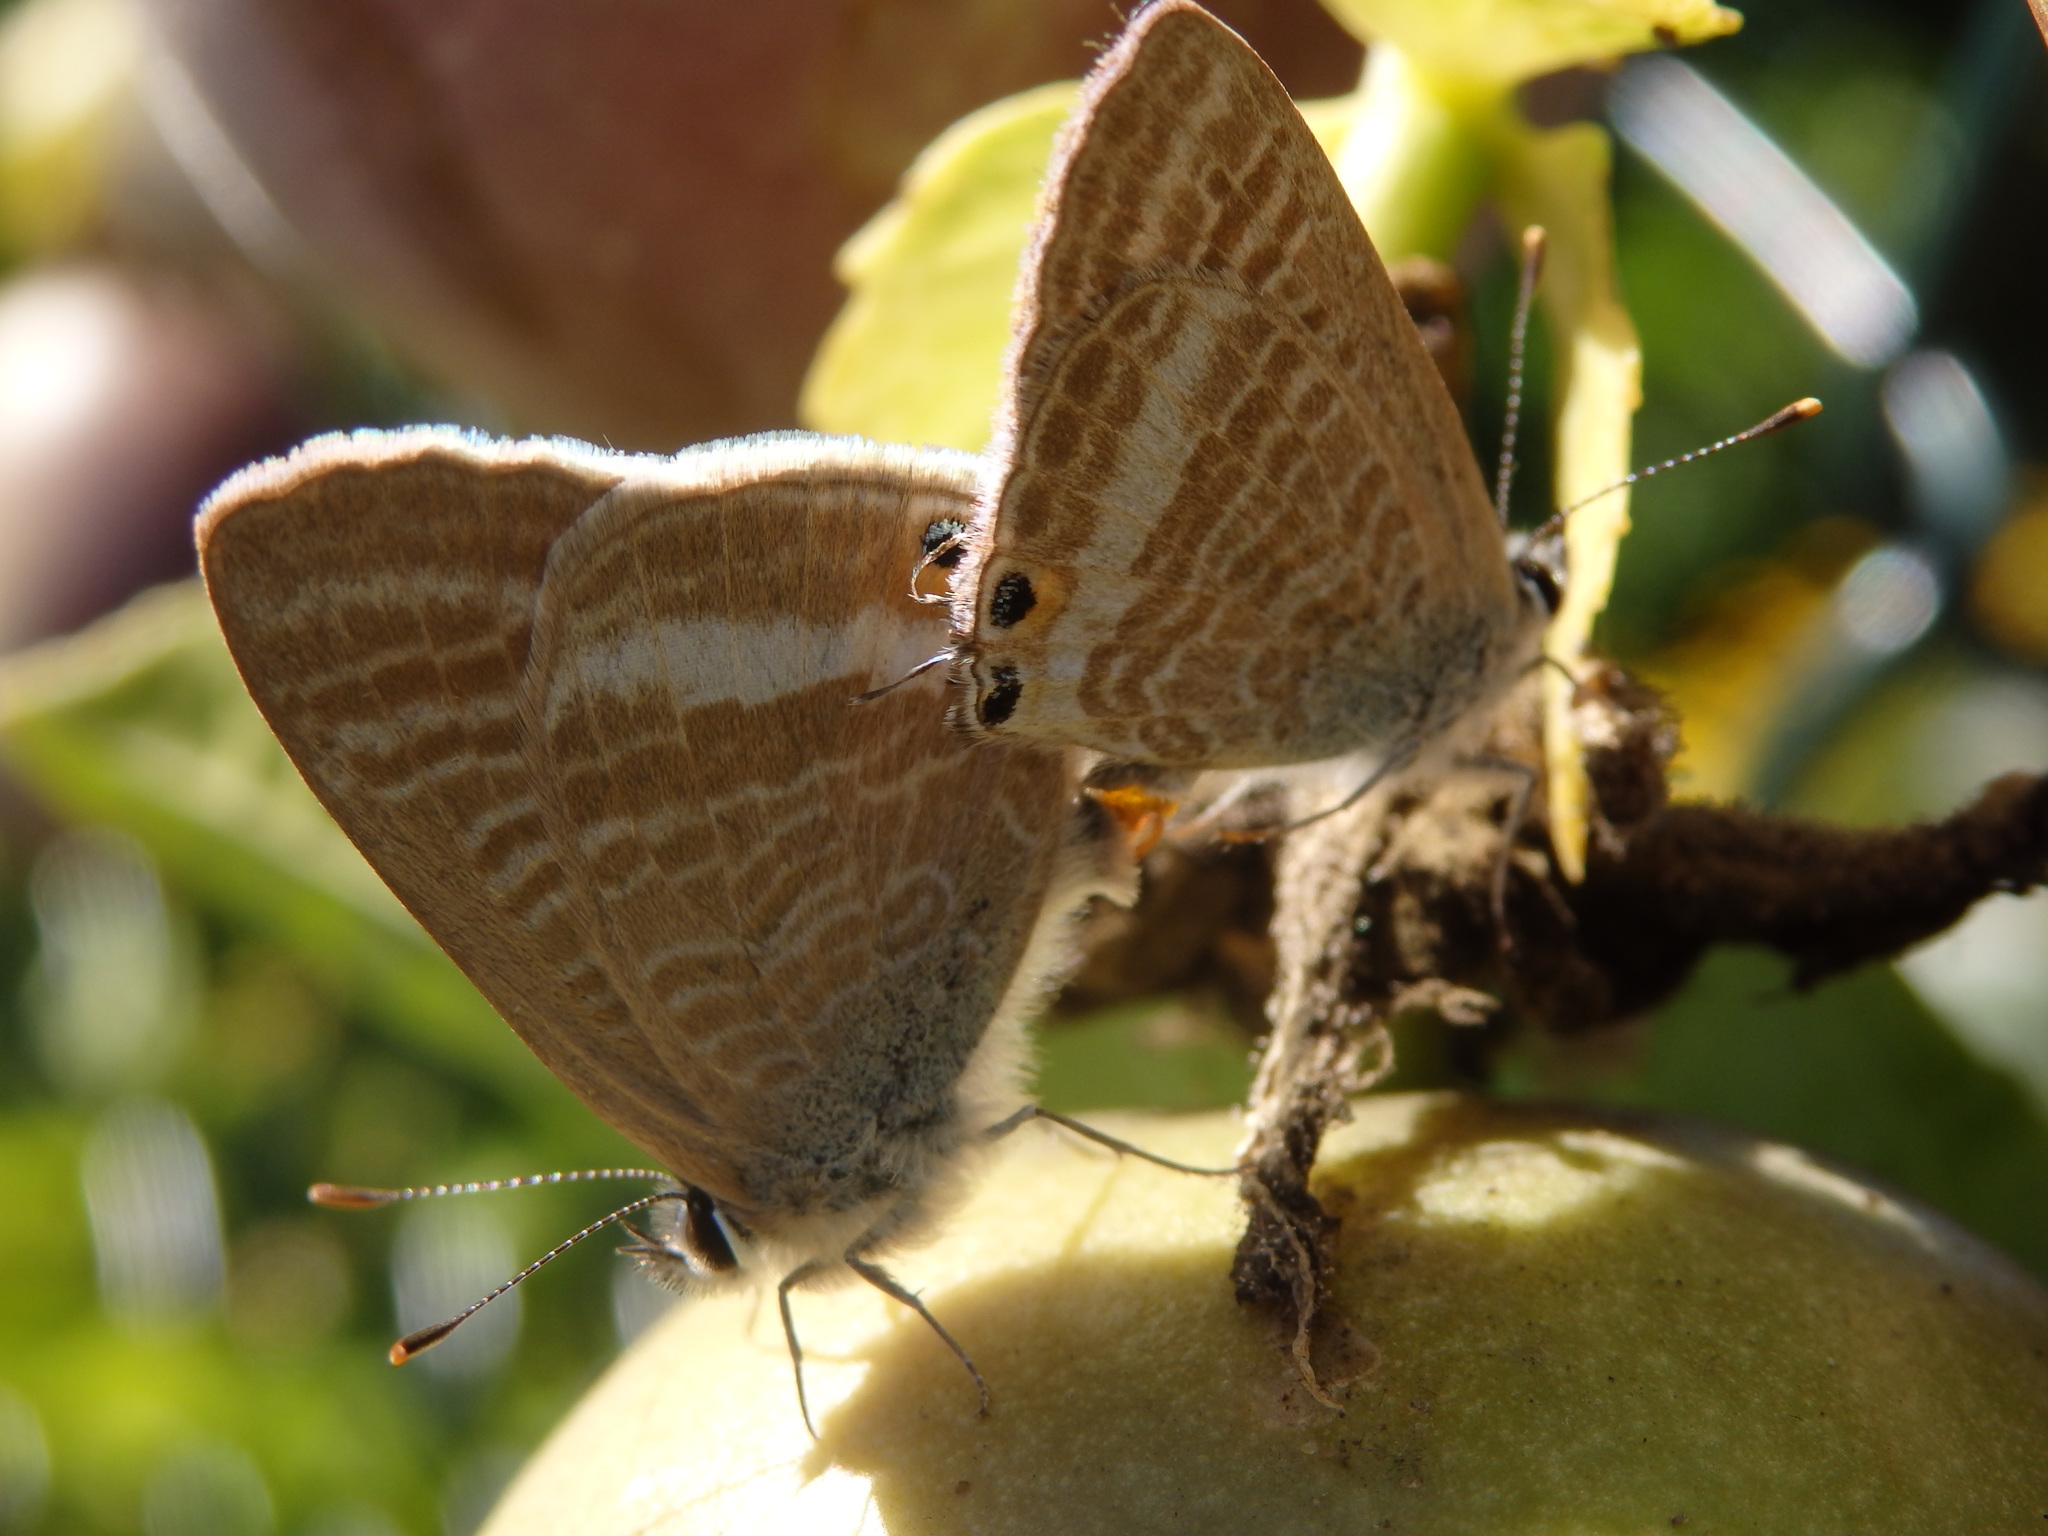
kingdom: Animalia
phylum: Arthropoda
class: Insecta
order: Lepidoptera
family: Lycaenidae
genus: Lampides
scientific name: Lampides boeticus
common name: Long-tailed blue
